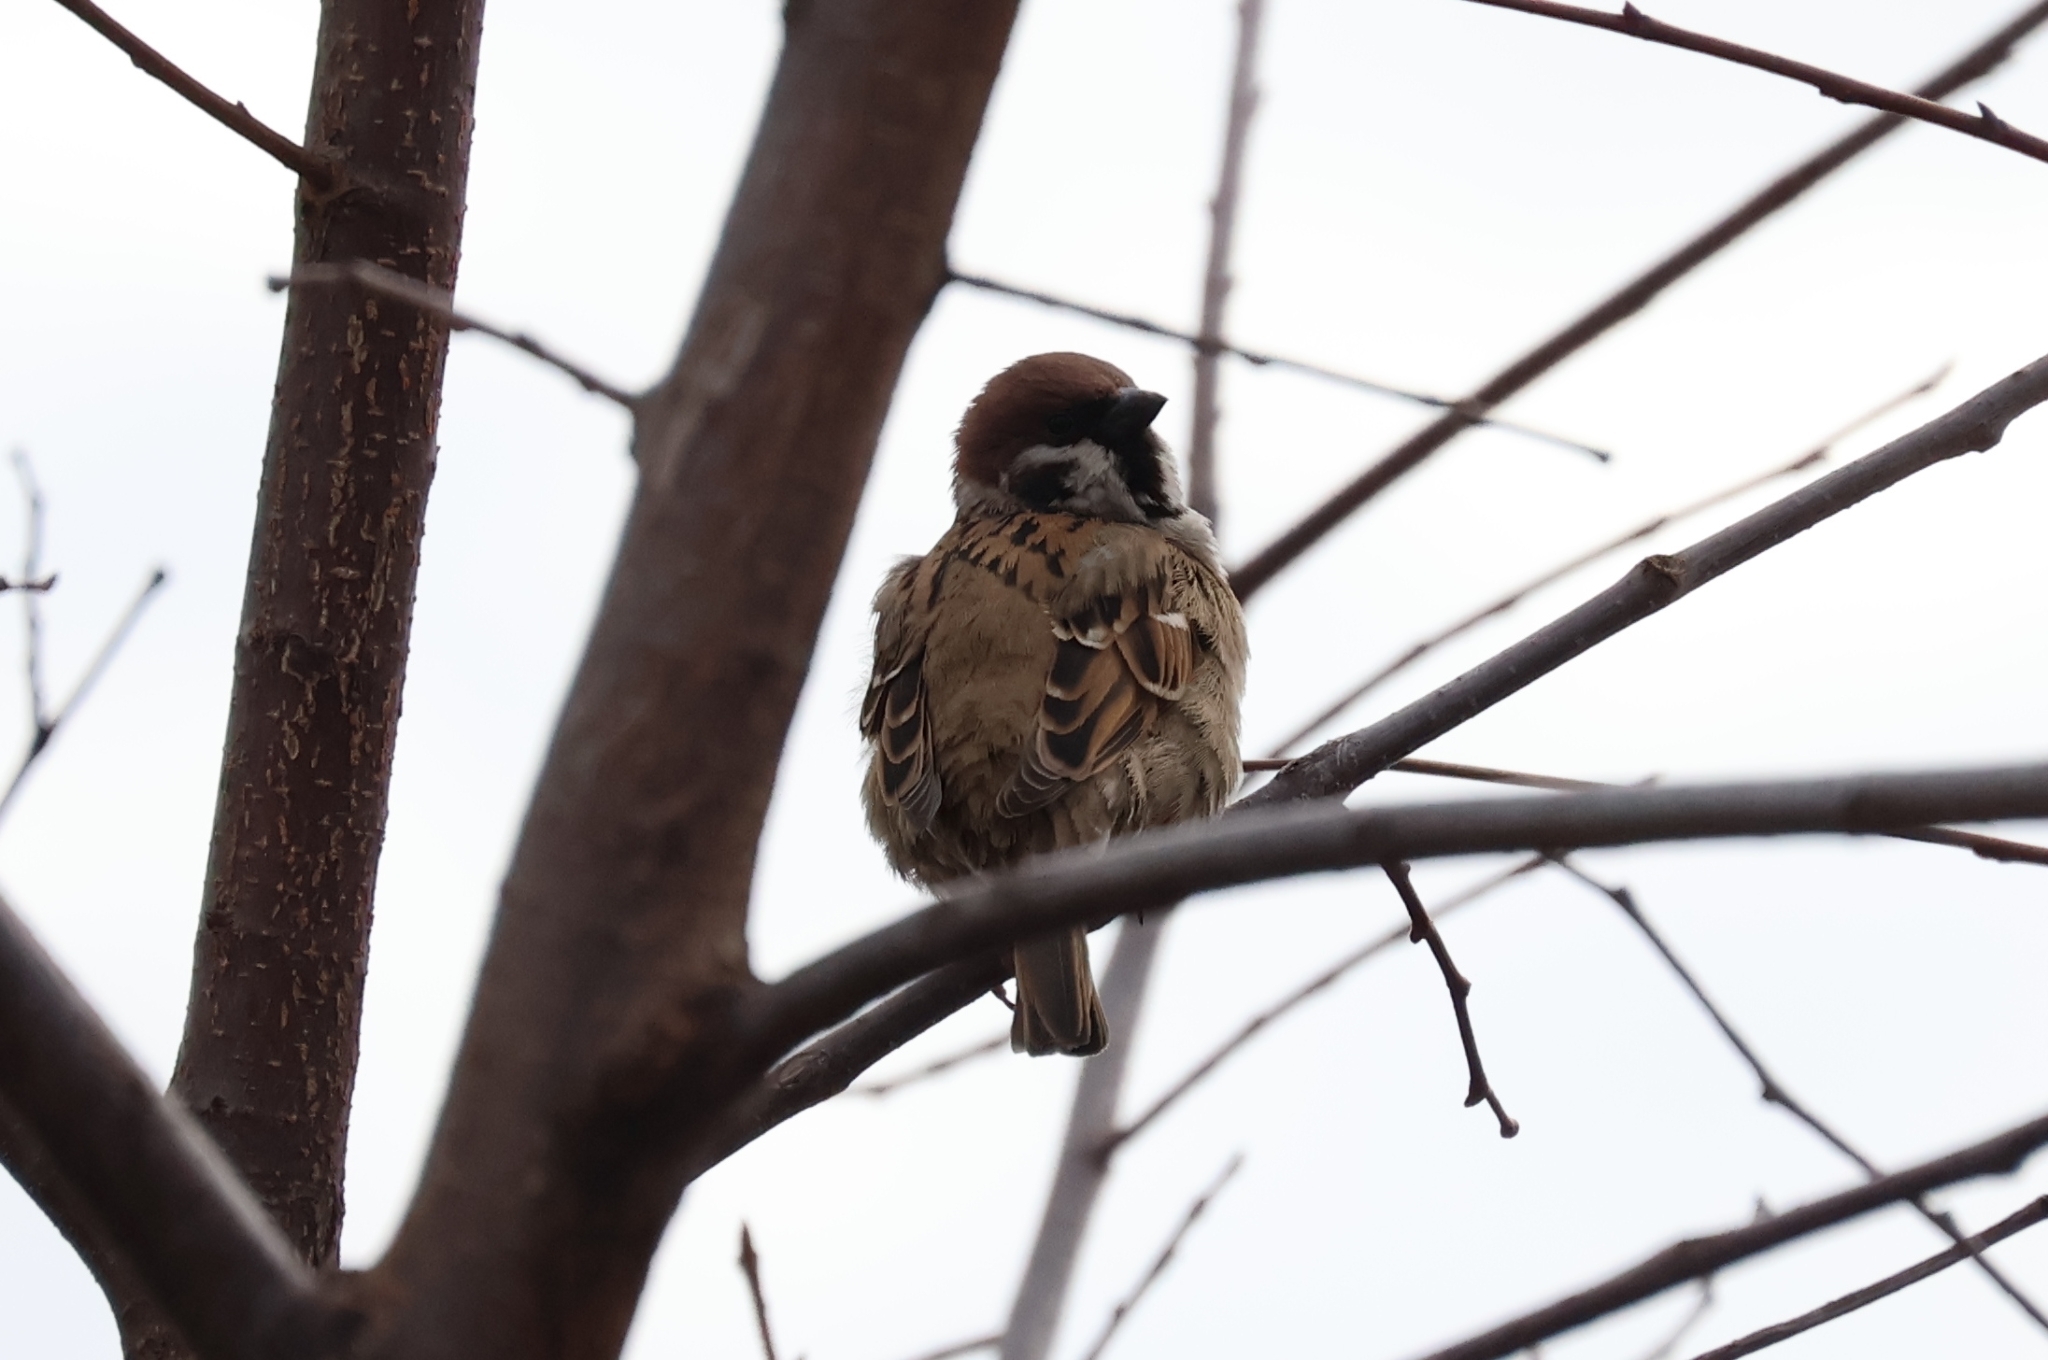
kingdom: Animalia
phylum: Chordata
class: Aves
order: Passeriformes
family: Passeridae
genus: Passer
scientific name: Passer montanus
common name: Eurasian tree sparrow
